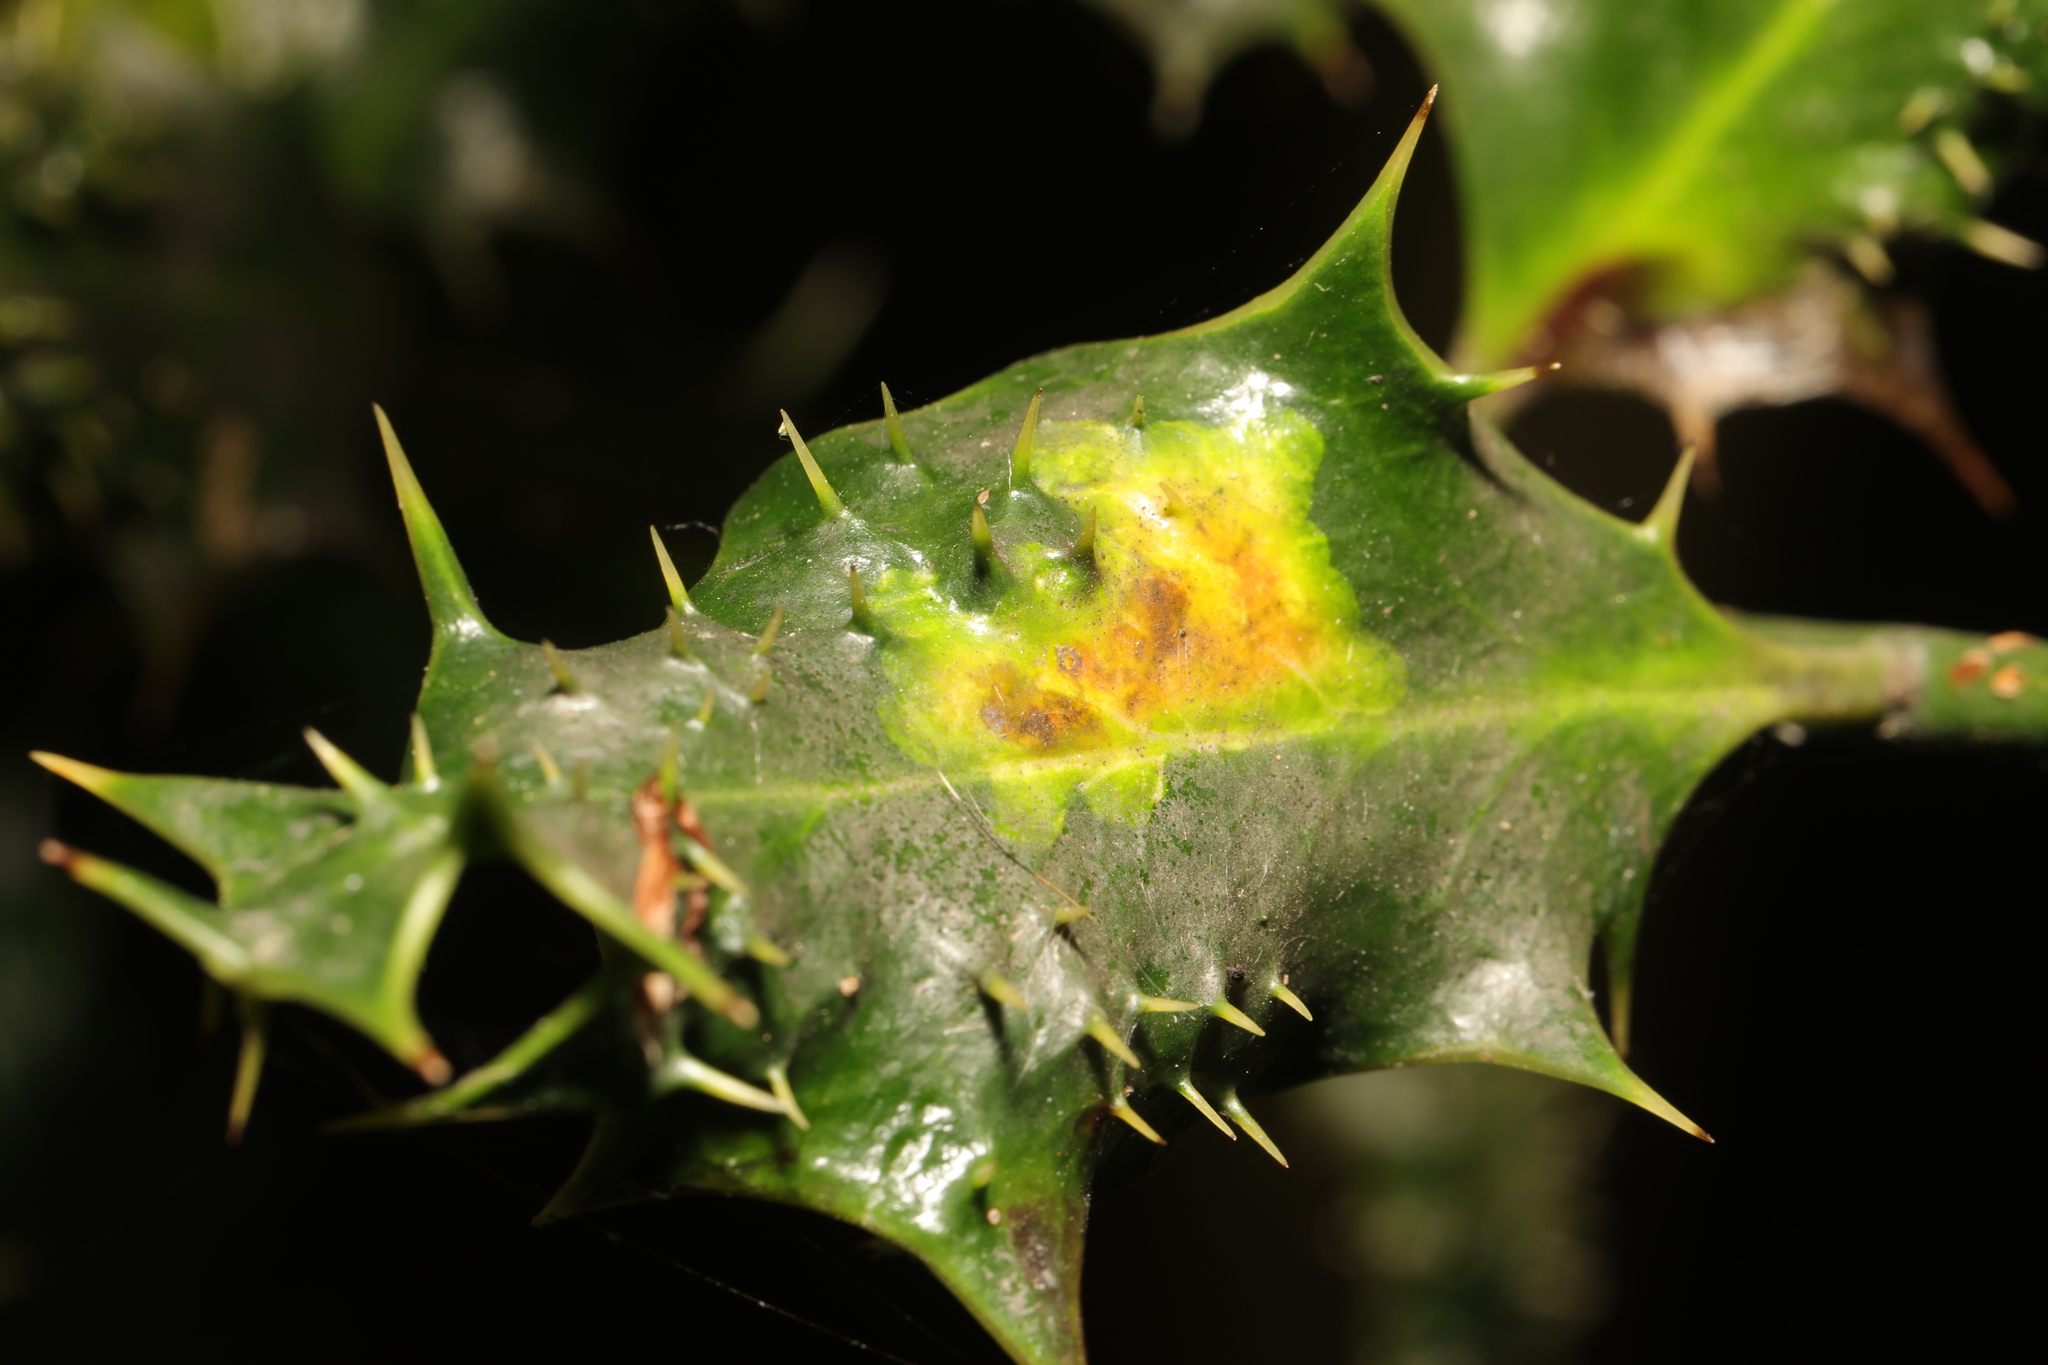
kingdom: Animalia
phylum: Arthropoda
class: Insecta
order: Diptera
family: Agromyzidae
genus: Phytomyza
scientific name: Phytomyza ilicis
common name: Holly leafminer
